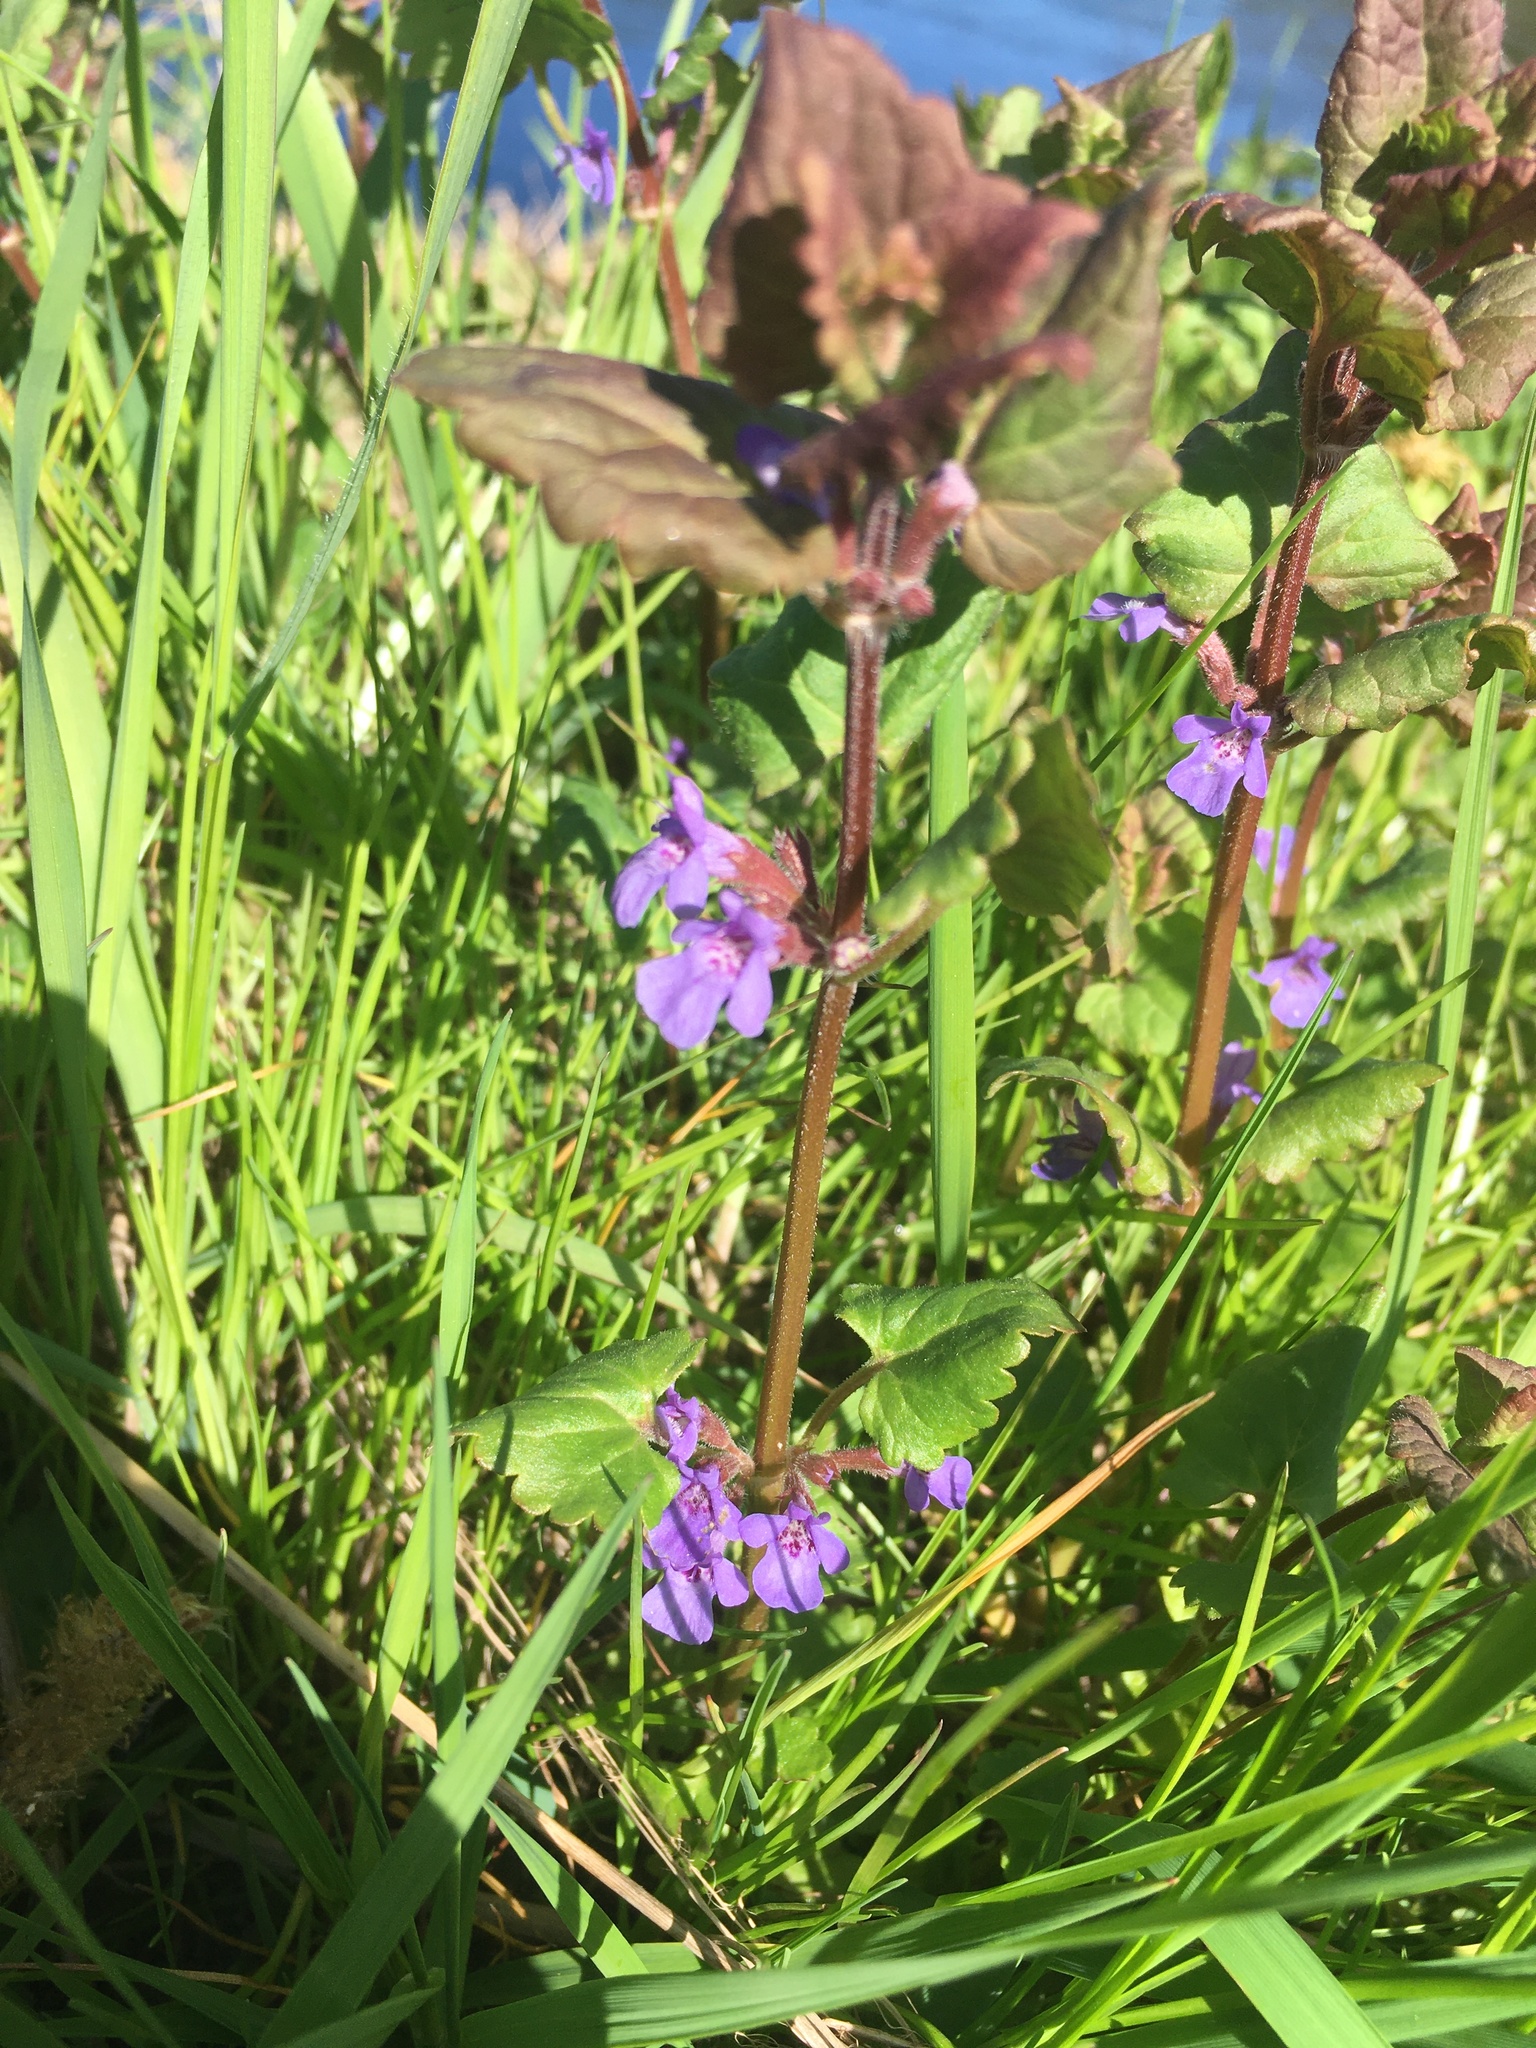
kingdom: Plantae
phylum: Tracheophyta
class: Magnoliopsida
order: Lamiales
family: Lamiaceae
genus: Glechoma
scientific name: Glechoma hederacea
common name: Ground ivy
